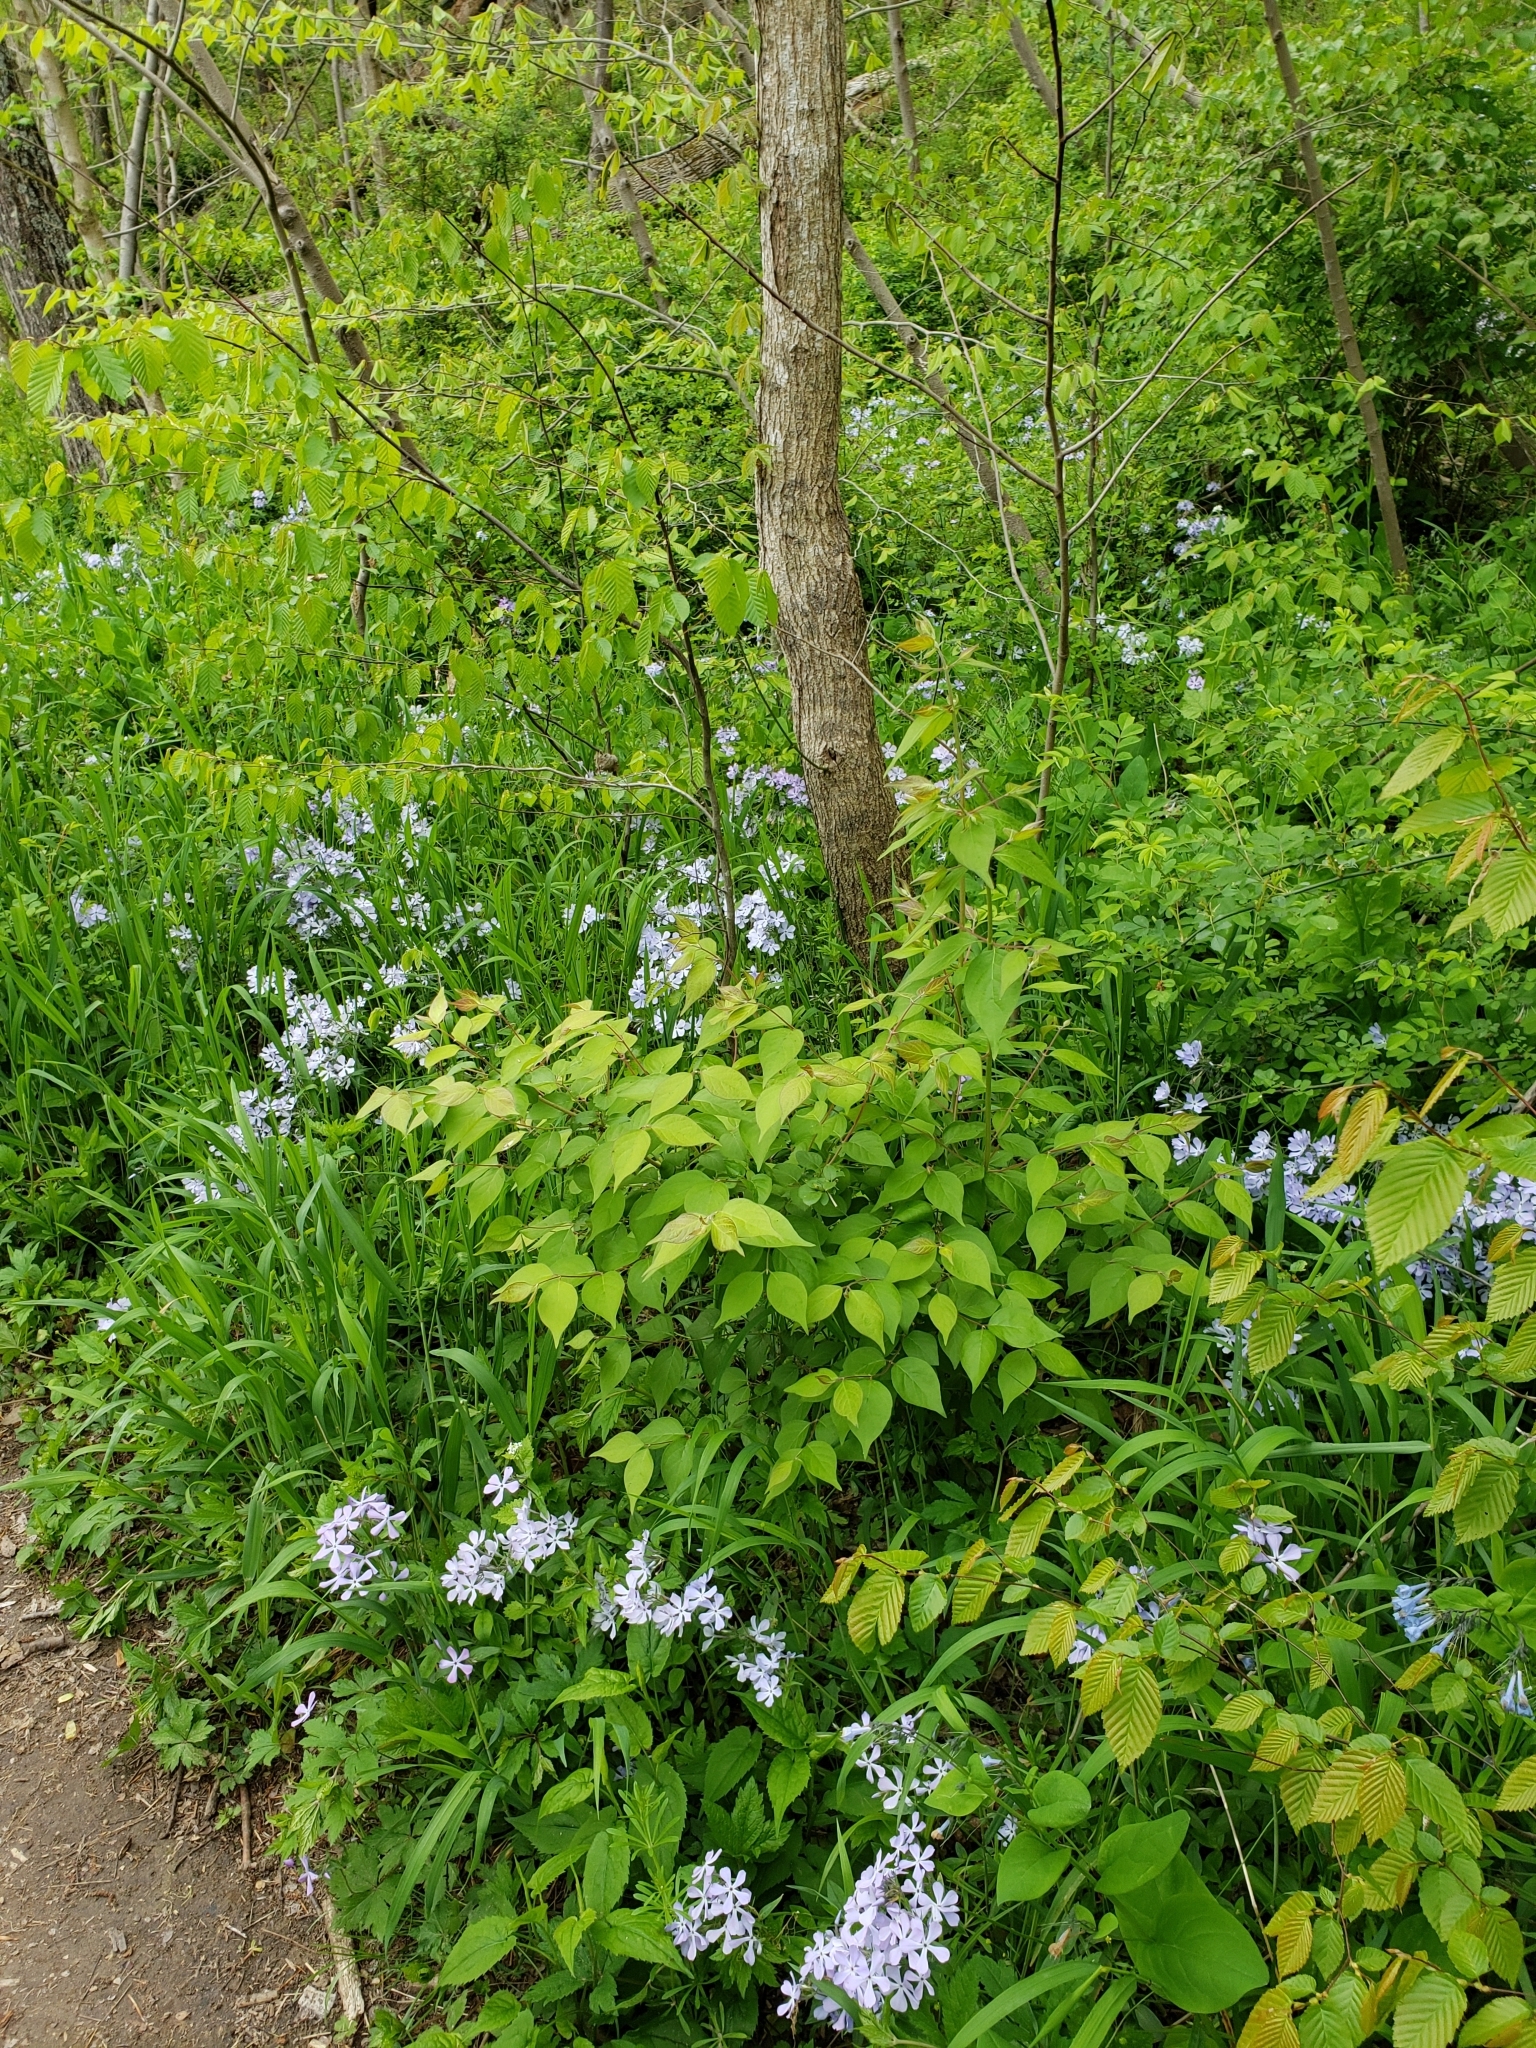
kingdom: Plantae
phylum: Tracheophyta
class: Magnoliopsida
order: Ericales
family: Polemoniaceae
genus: Phlox
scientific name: Phlox divaricata
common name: Blue phlox
